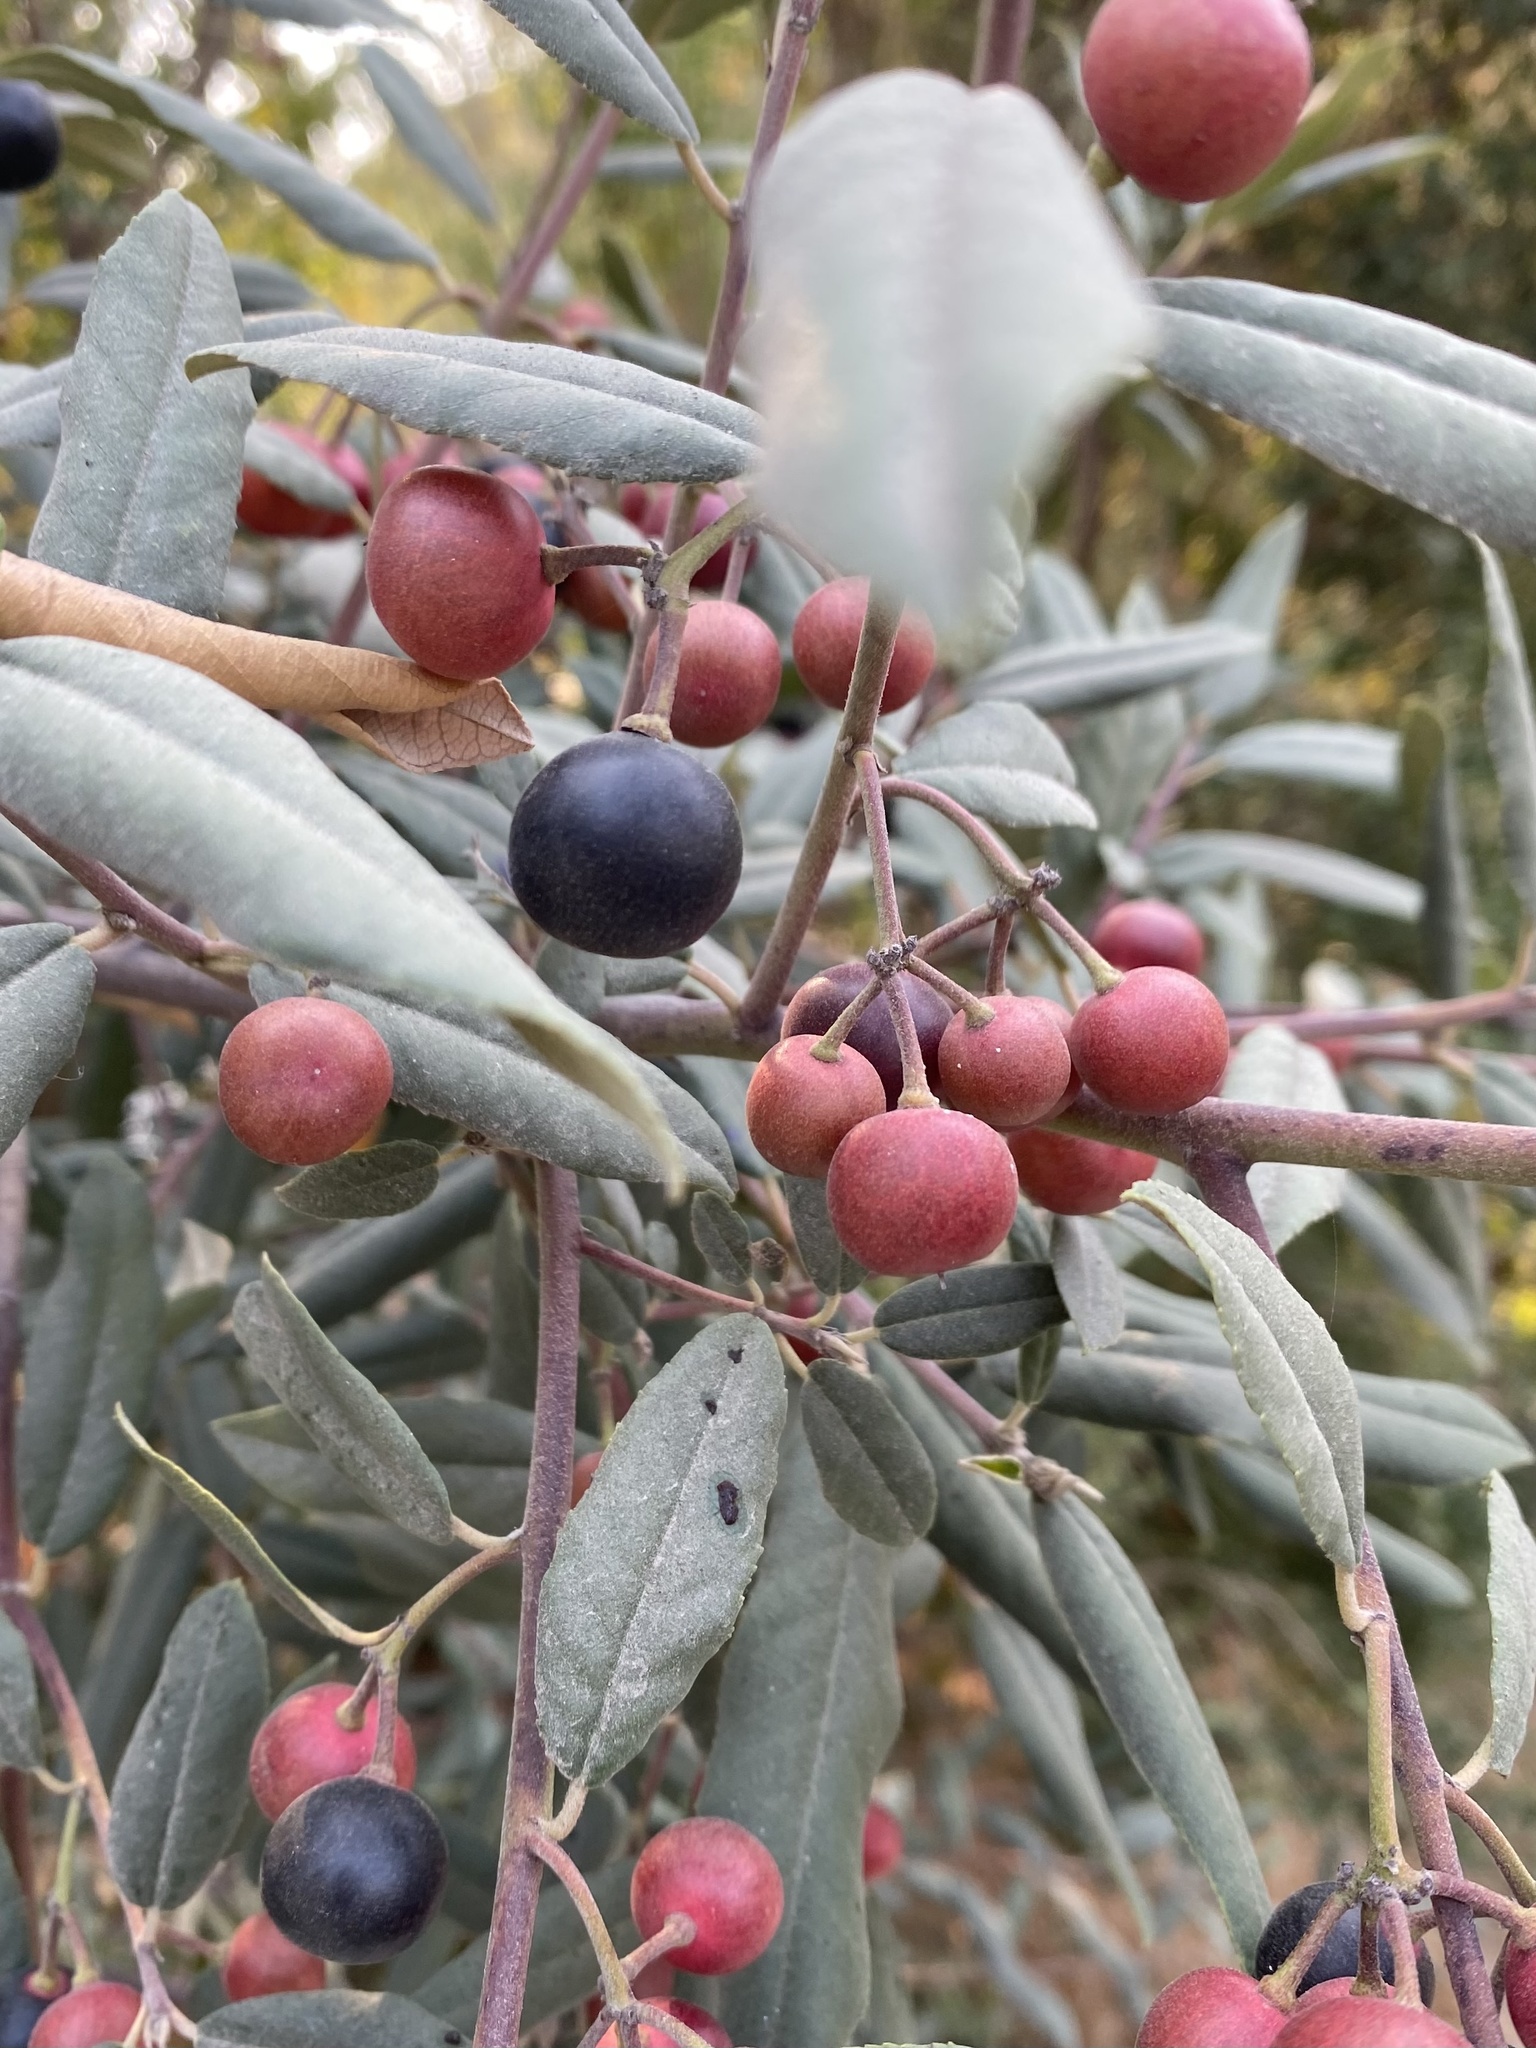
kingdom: Plantae
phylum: Tracheophyta
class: Magnoliopsida
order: Rosales
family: Rhamnaceae
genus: Frangula
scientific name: Frangula californica
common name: California buckthorn
